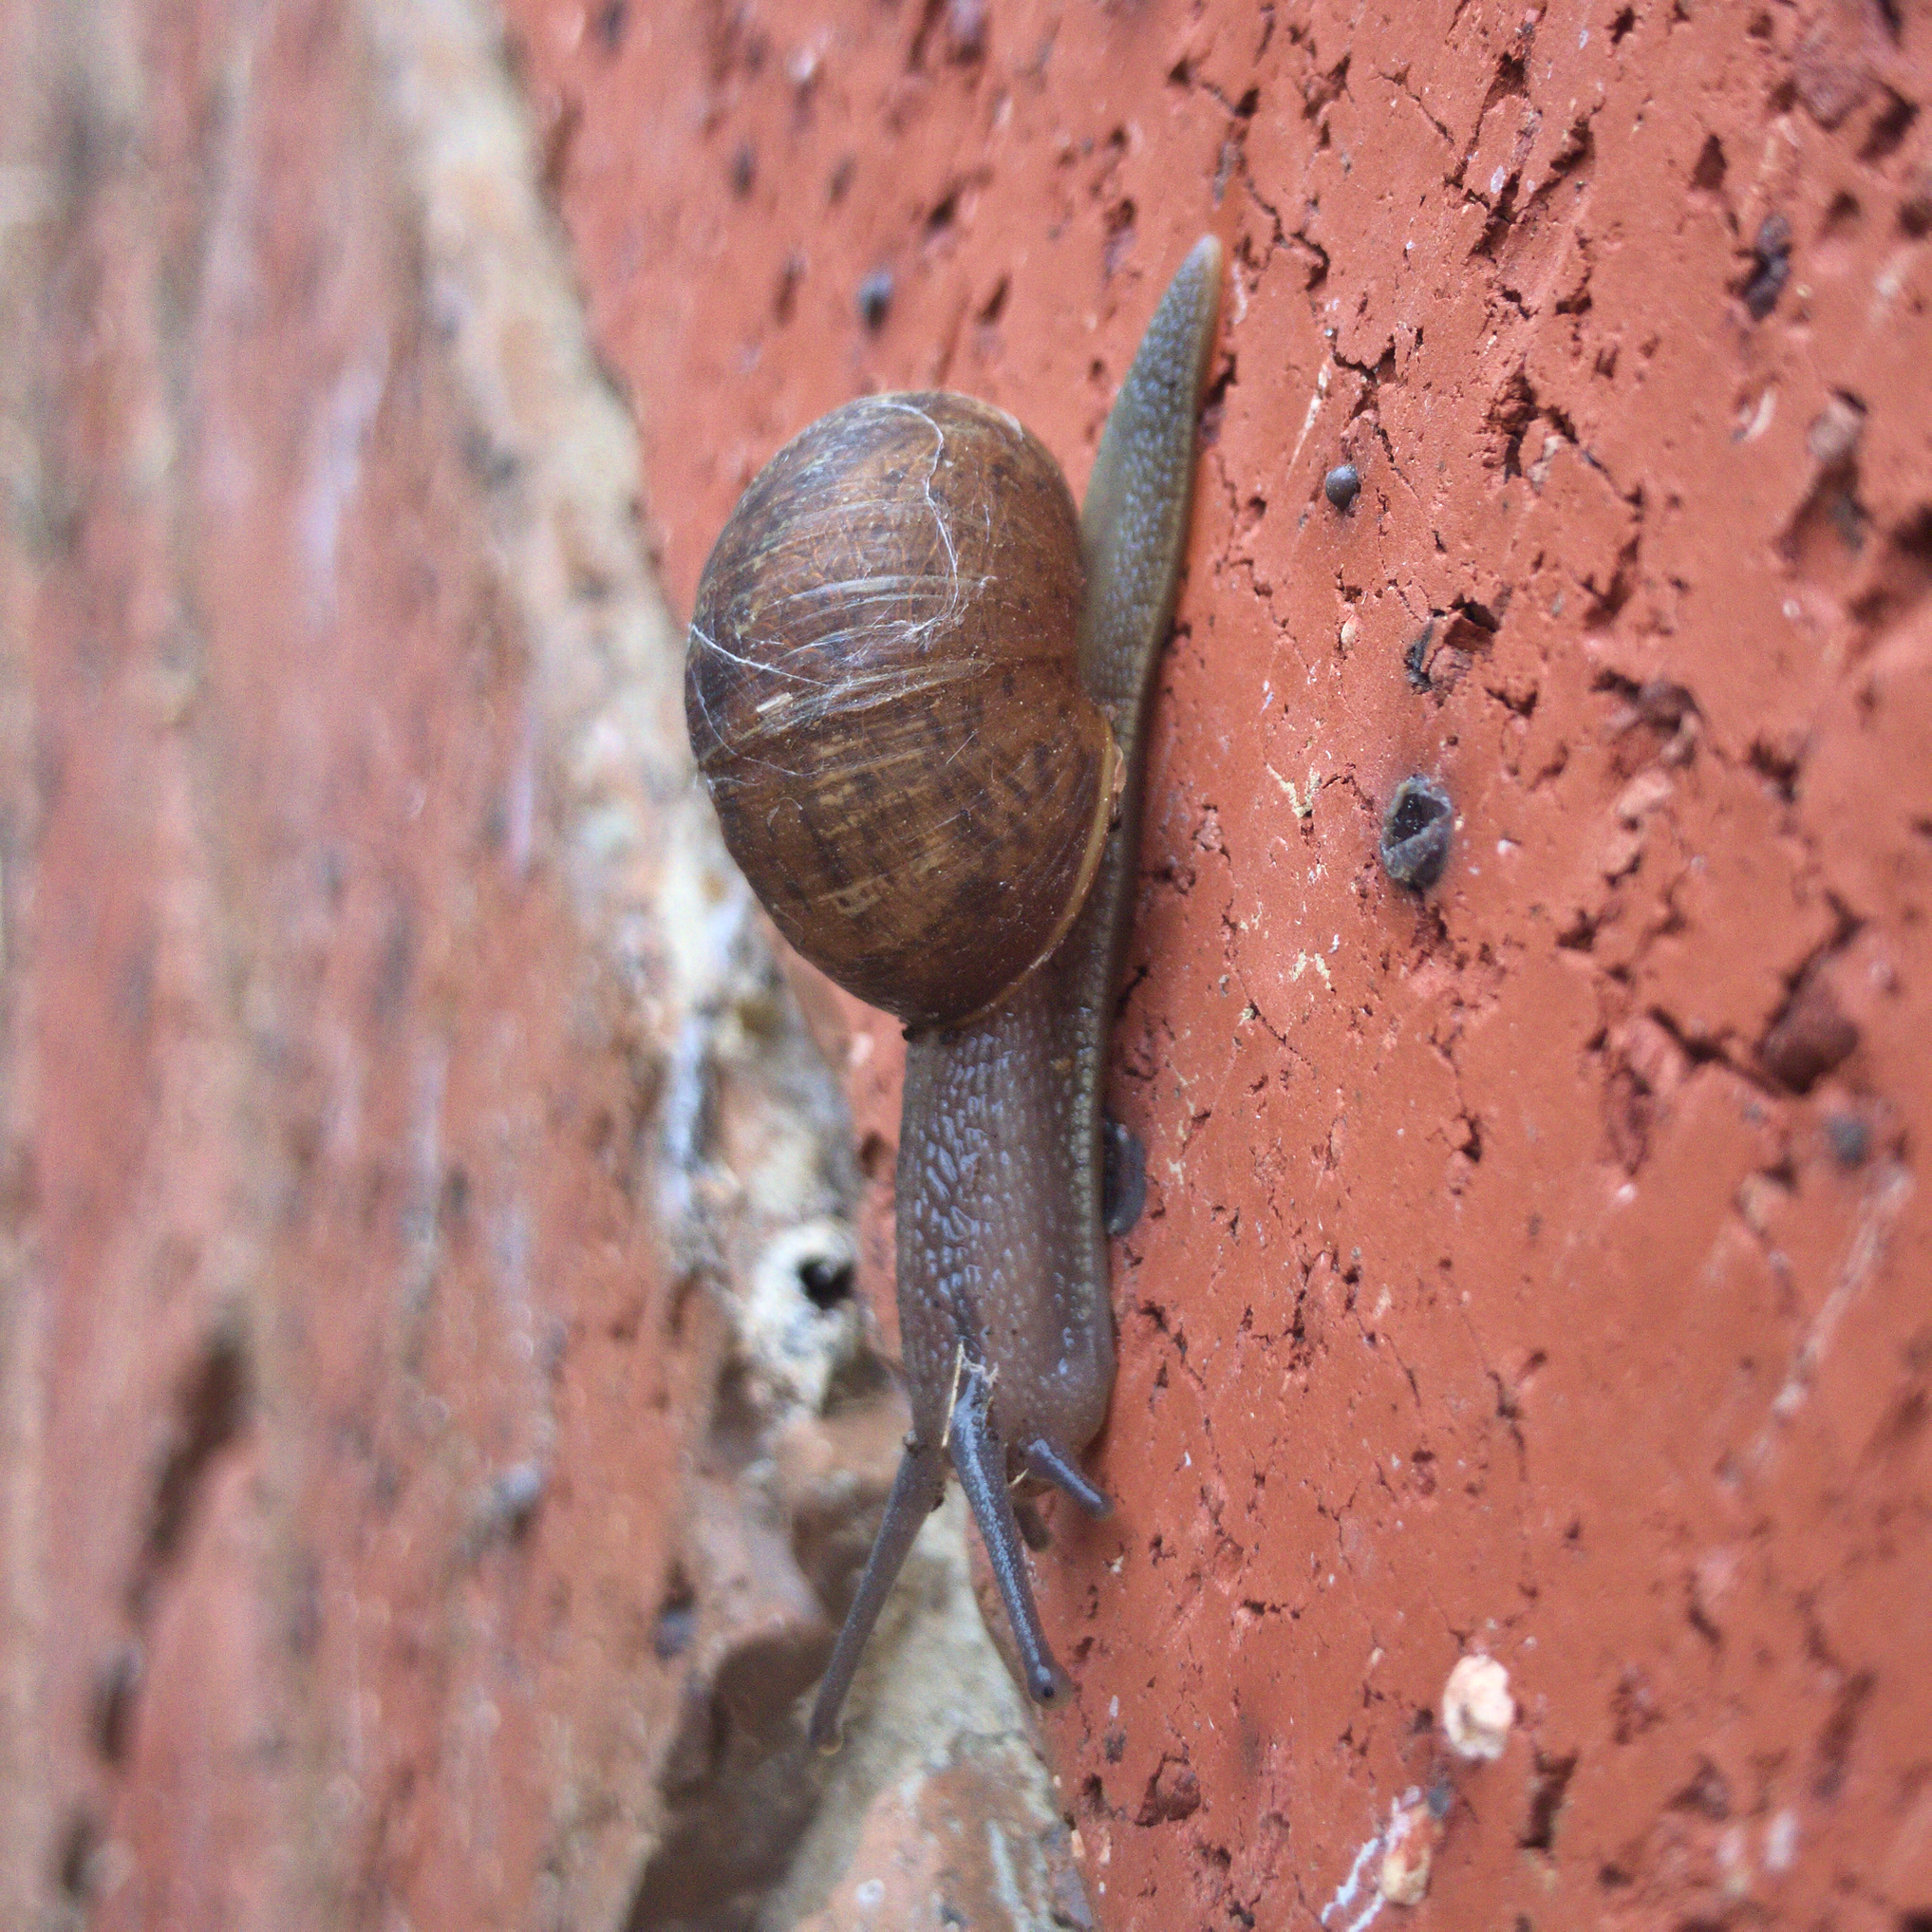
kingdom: Animalia
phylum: Mollusca
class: Gastropoda
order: Stylommatophora
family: Helicidae
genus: Cornu
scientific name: Cornu aspersum
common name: Brown garden snail
